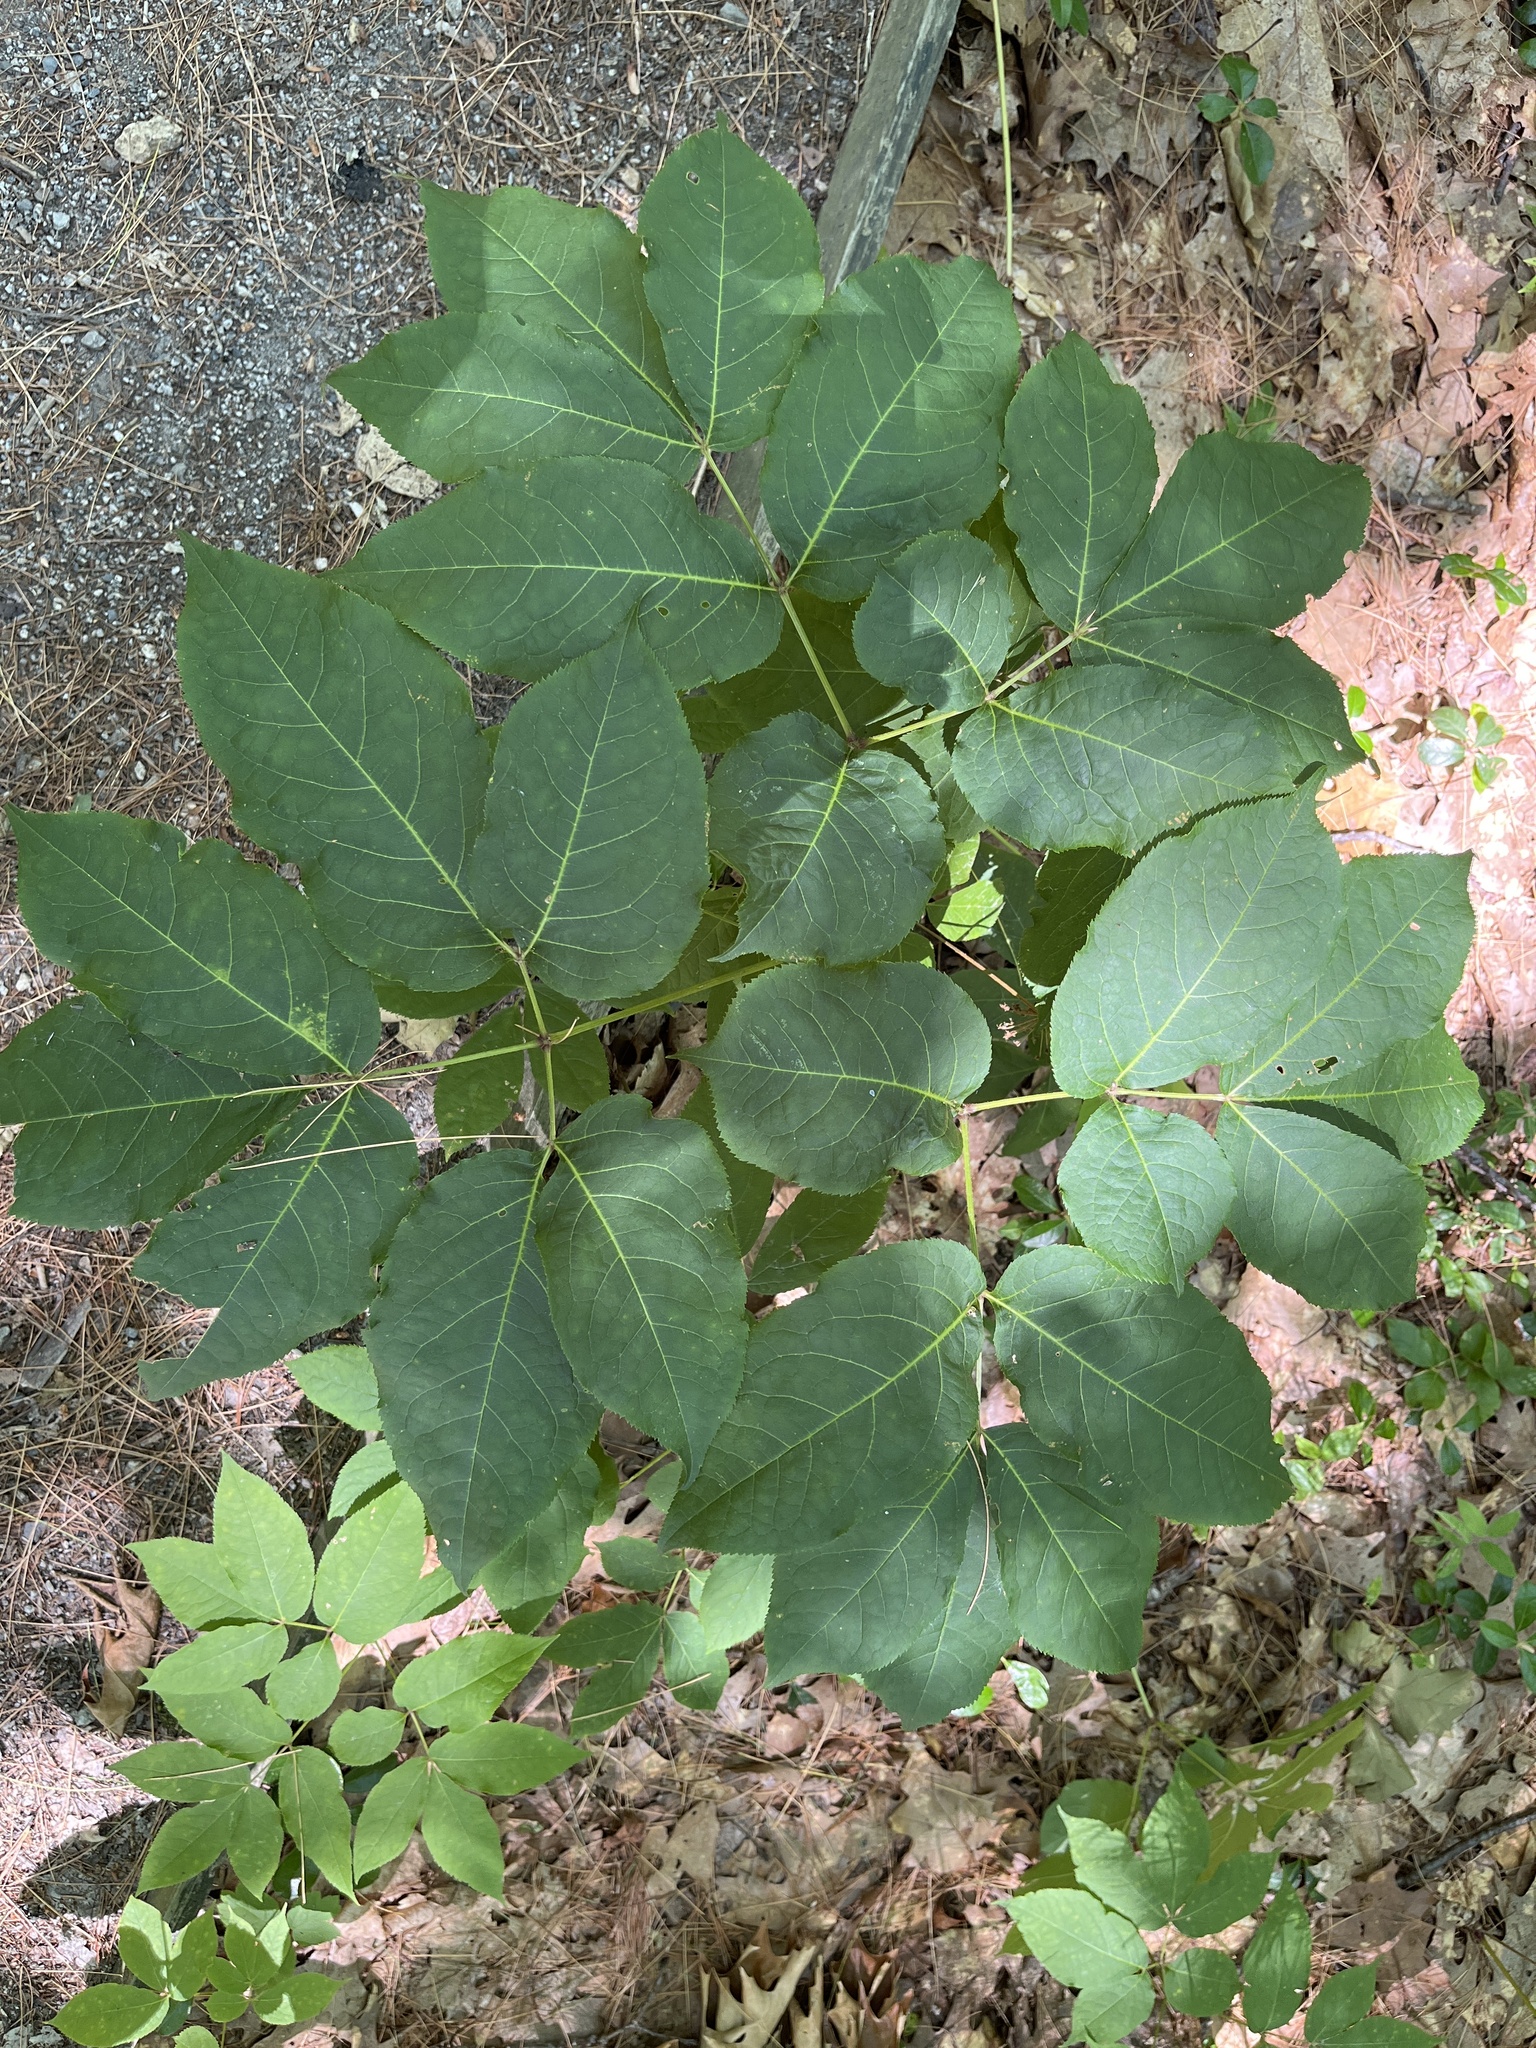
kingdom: Plantae
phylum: Tracheophyta
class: Magnoliopsida
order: Apiales
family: Araliaceae
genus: Aralia
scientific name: Aralia nudicaulis
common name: Wild sarsaparilla
